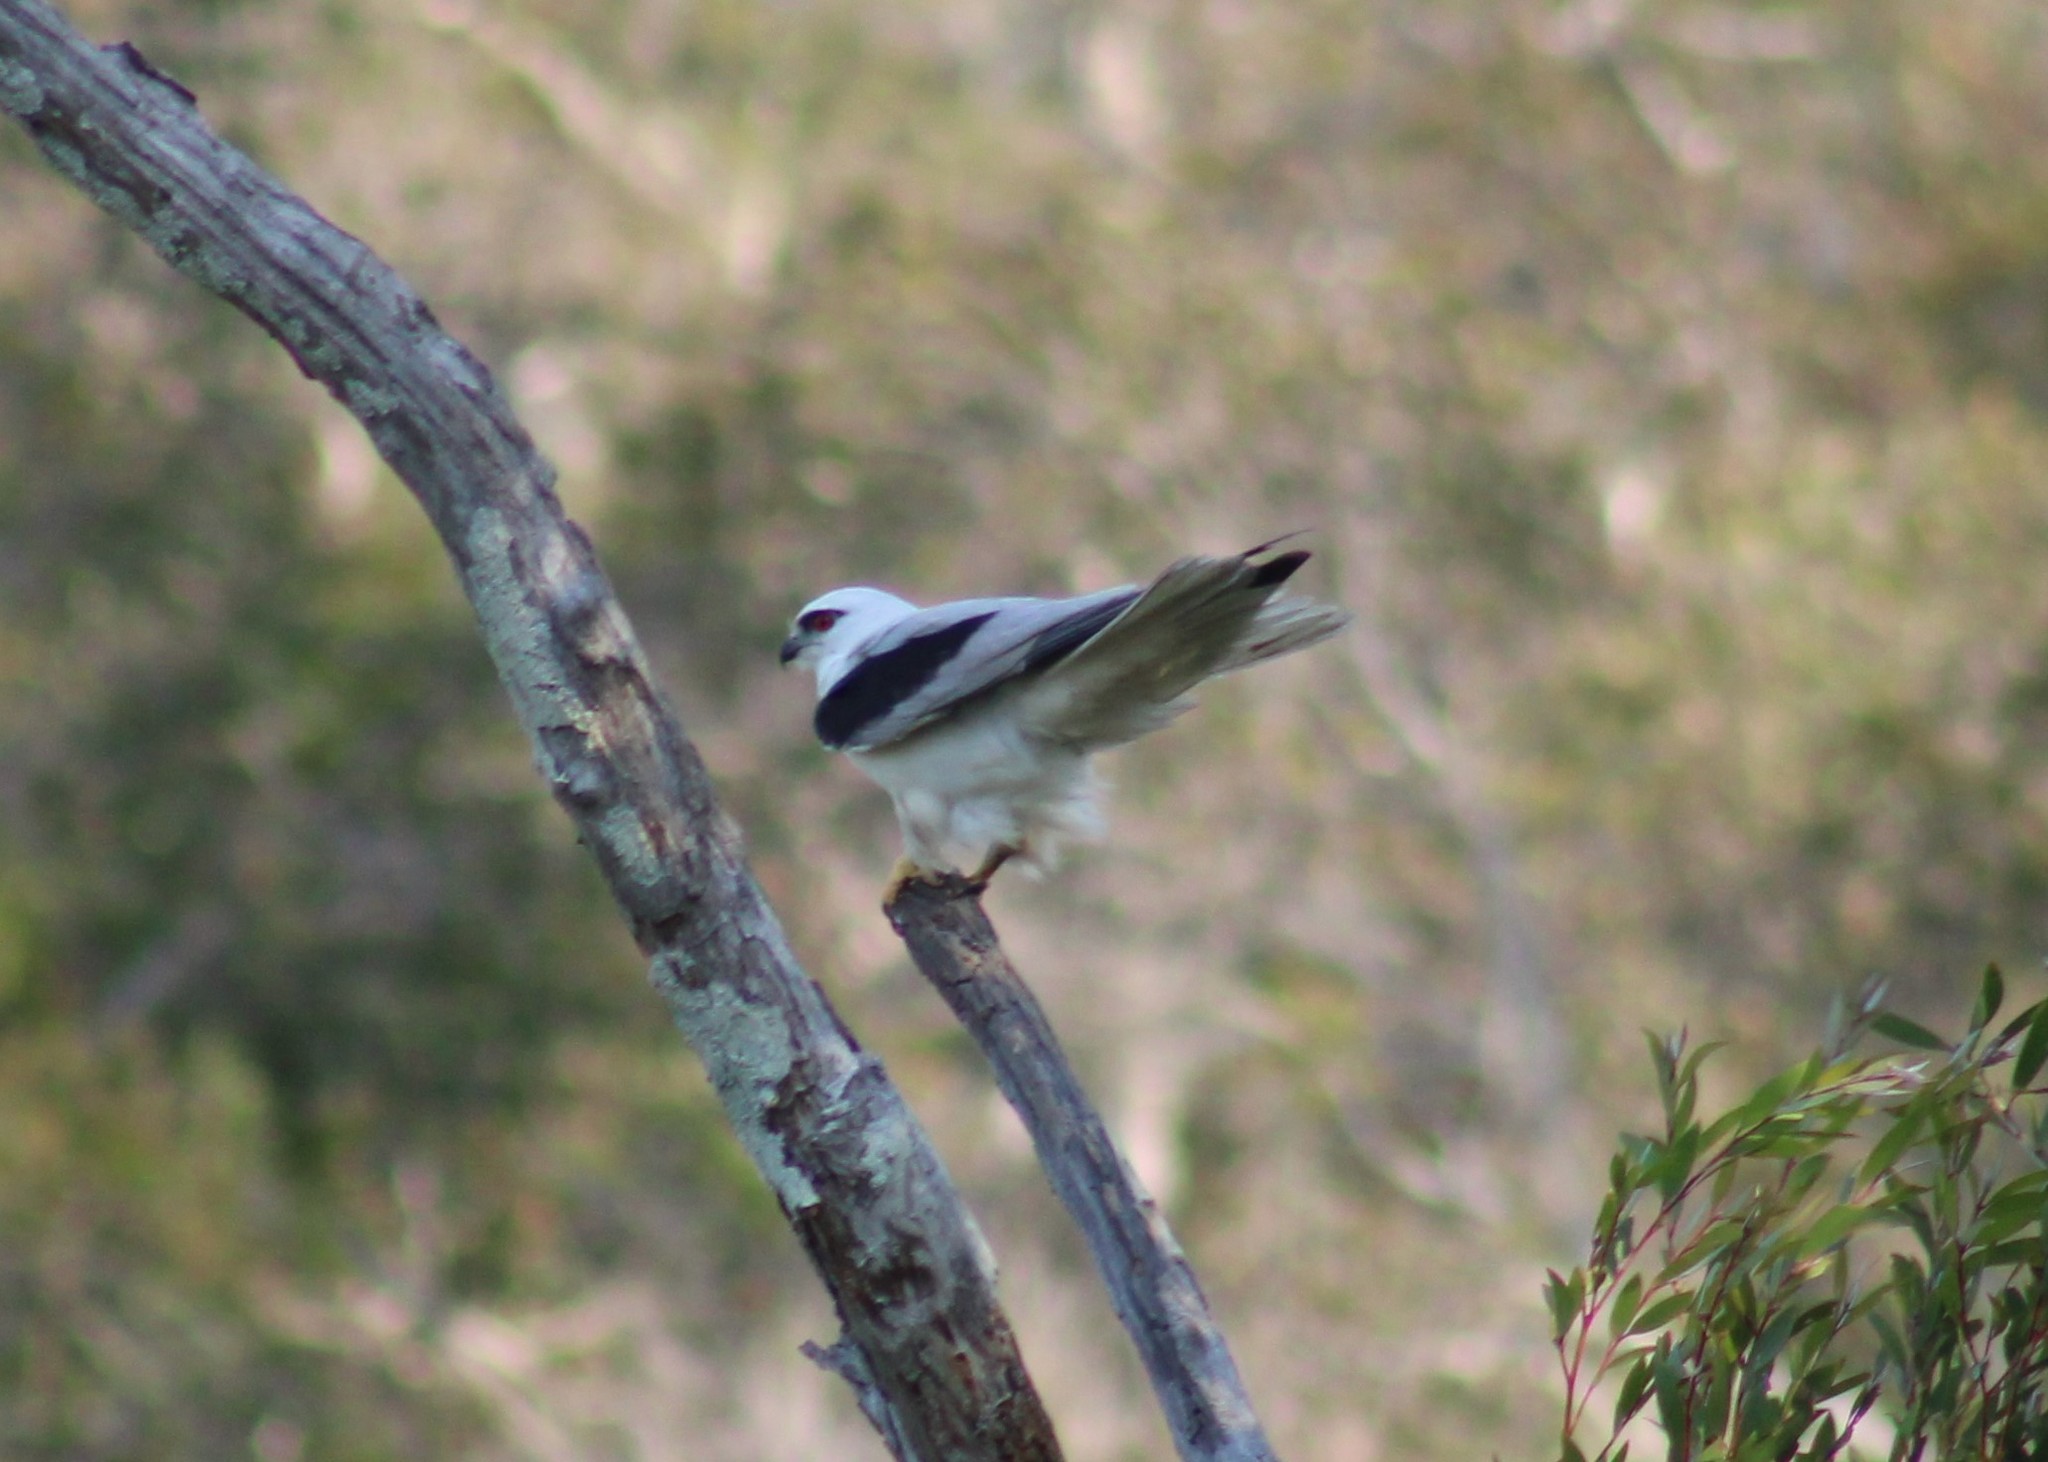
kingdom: Animalia
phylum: Chordata
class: Aves
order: Accipitriformes
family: Accipitridae
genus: Elanus
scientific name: Elanus axillaris
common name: Black-shouldered kite
